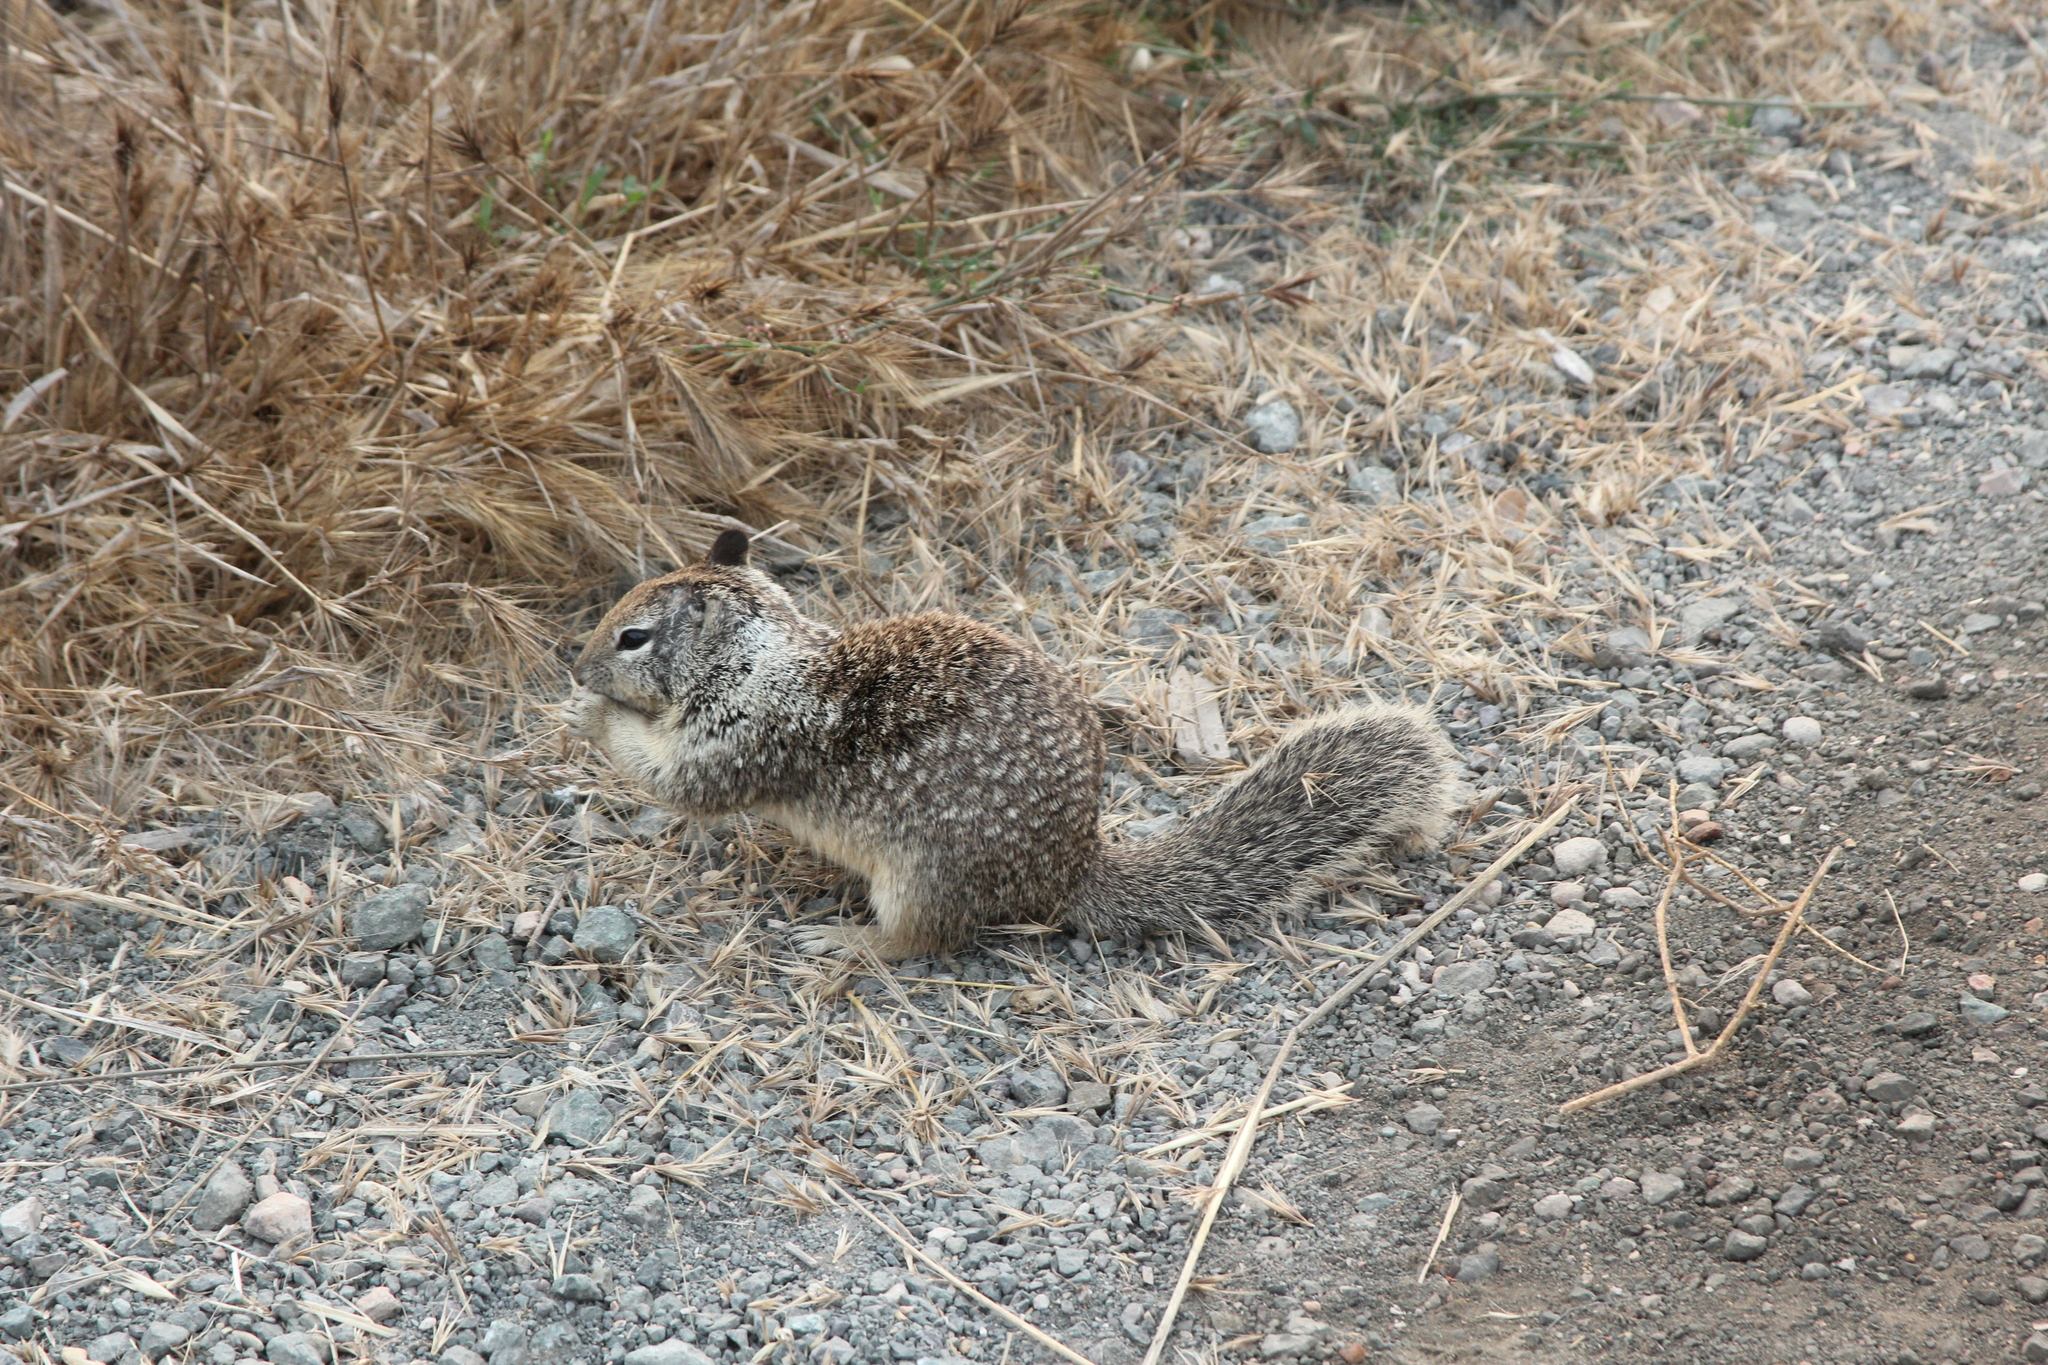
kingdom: Animalia
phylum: Chordata
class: Mammalia
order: Rodentia
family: Sciuridae
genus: Otospermophilus
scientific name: Otospermophilus beecheyi
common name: California ground squirrel
